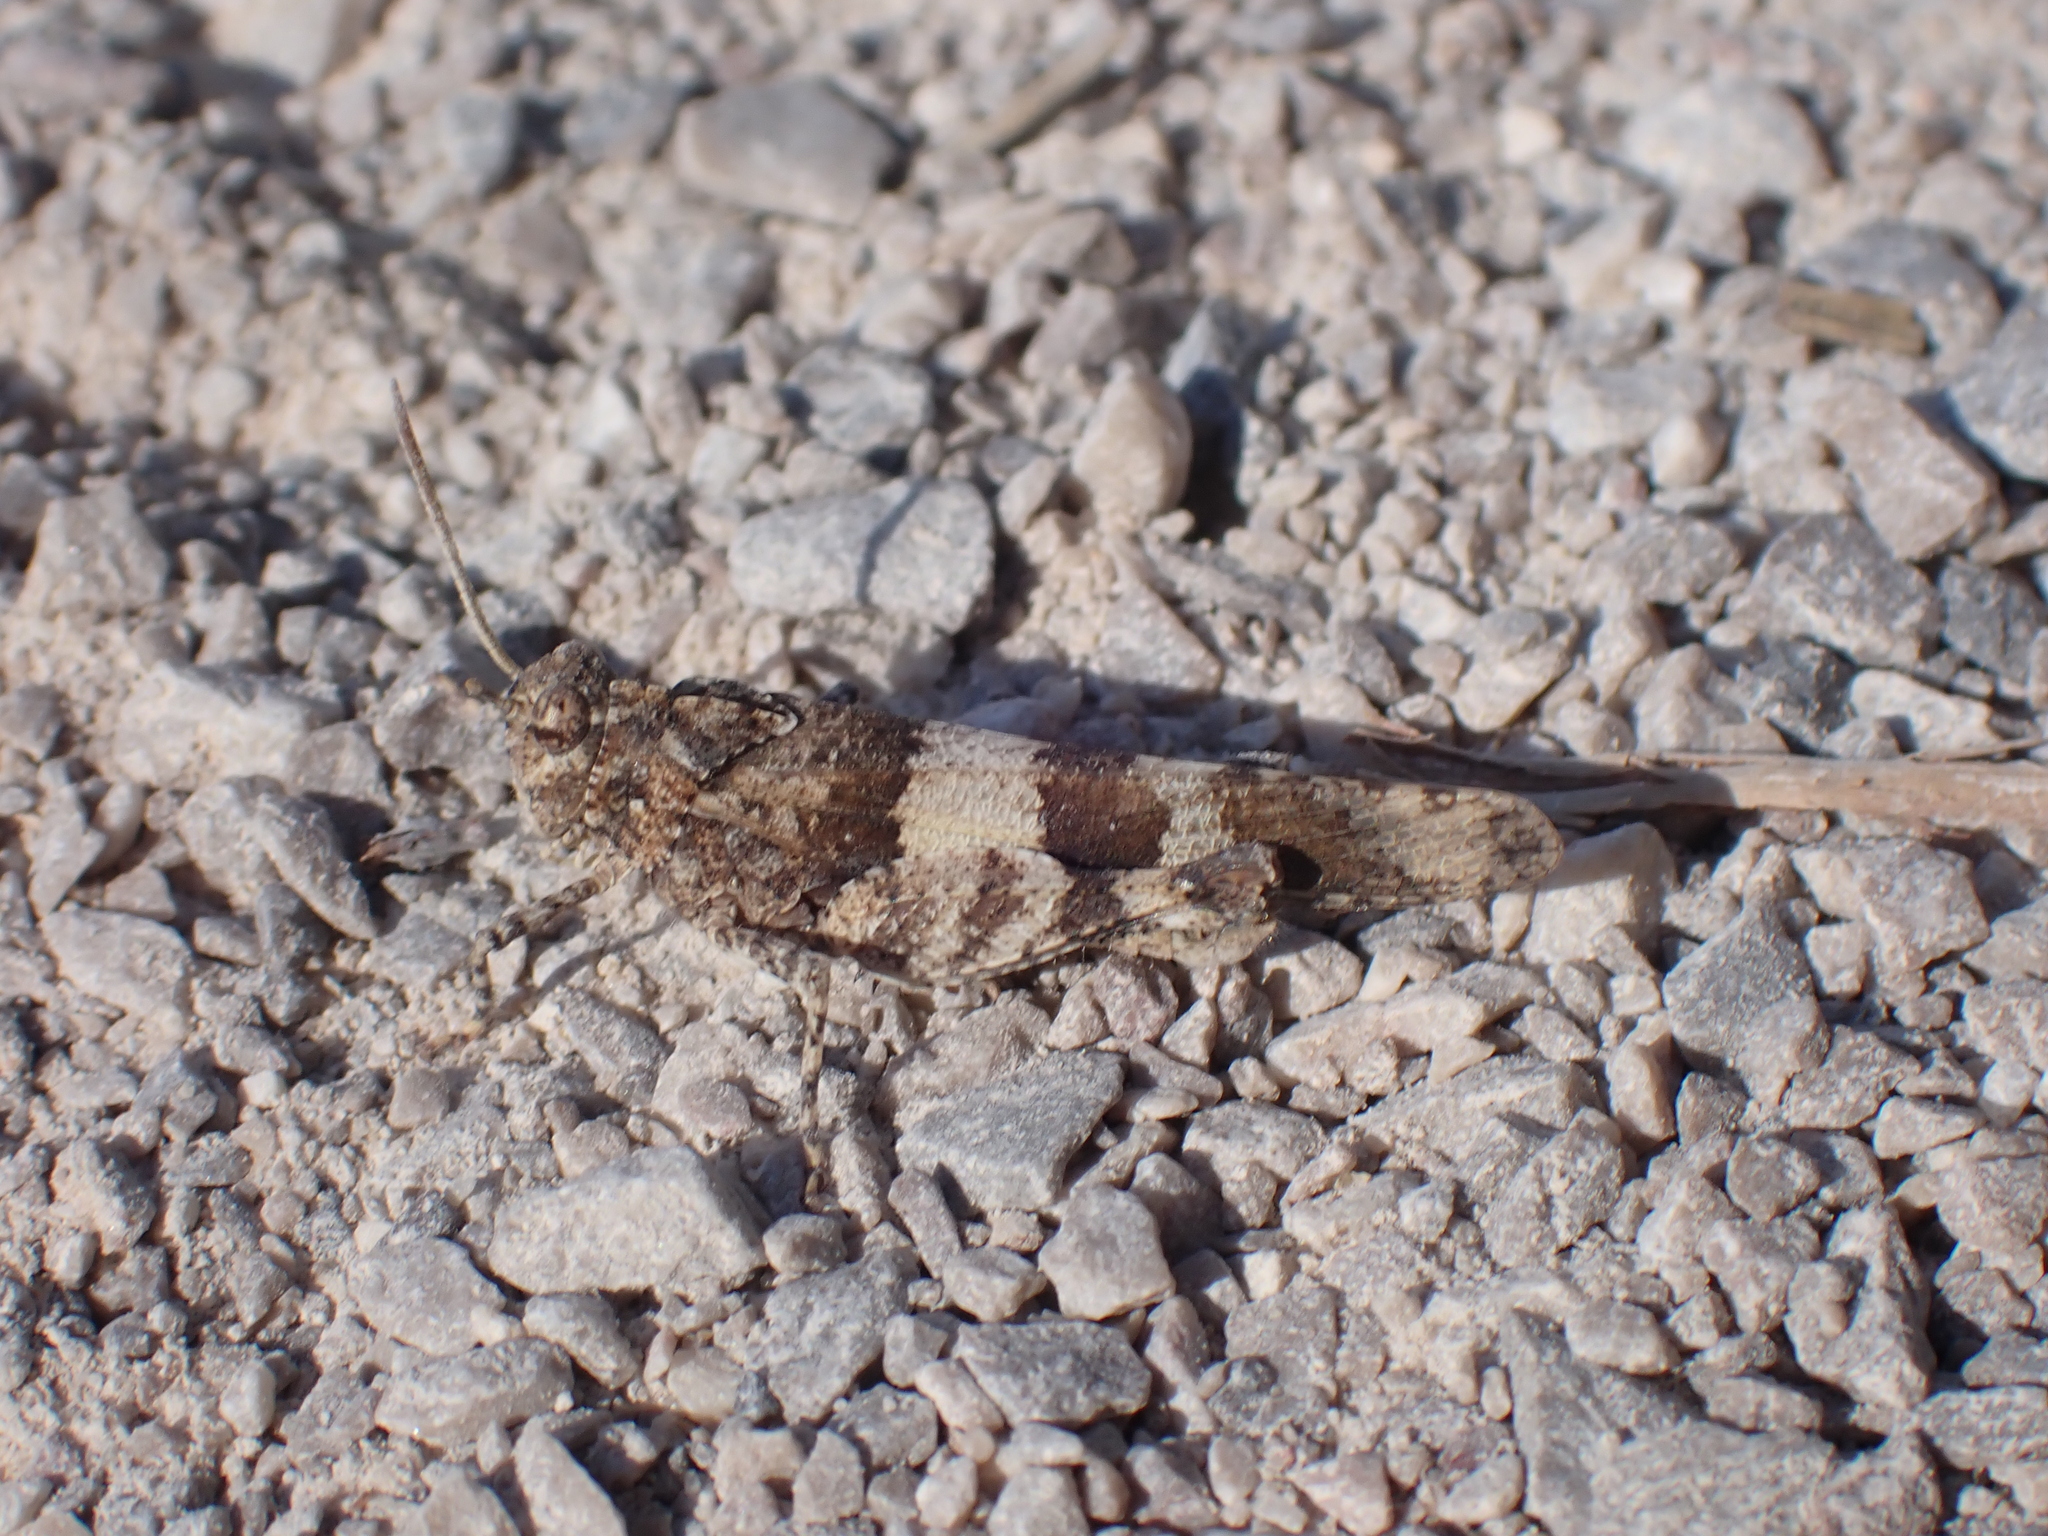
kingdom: Animalia
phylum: Arthropoda
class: Insecta
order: Orthoptera
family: Acrididae
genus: Oedipoda
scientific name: Oedipoda caerulescens
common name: Blue-winged grasshopper
